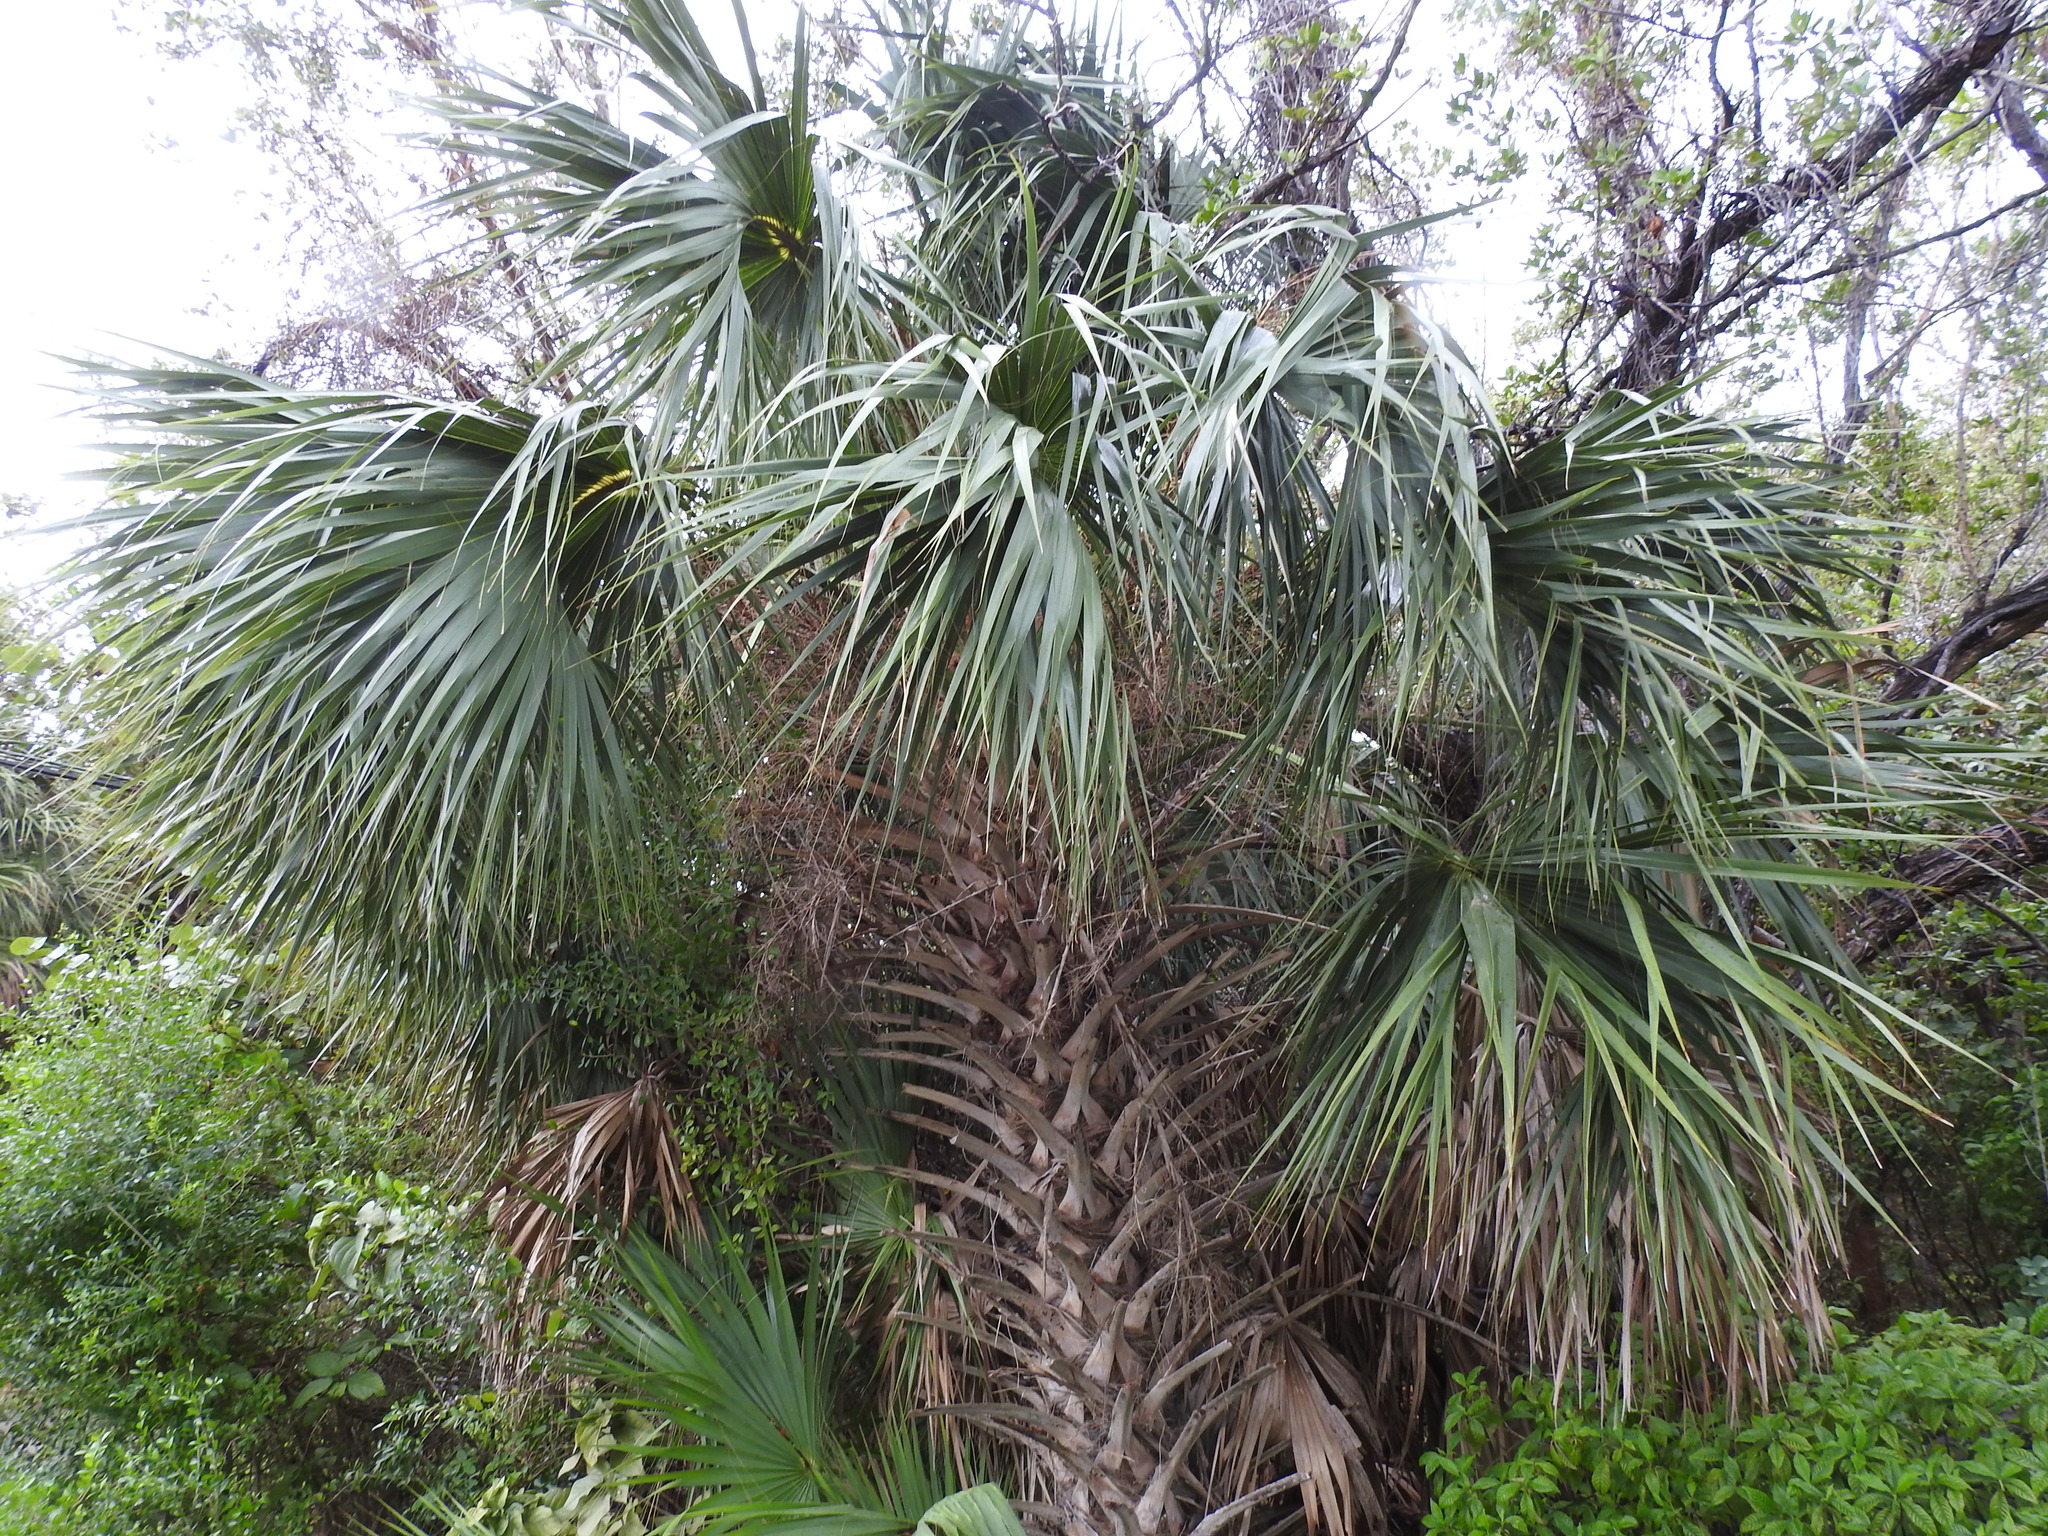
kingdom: Plantae
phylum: Tracheophyta
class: Liliopsida
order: Arecales
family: Arecaceae
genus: Sabal
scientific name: Sabal palmetto
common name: Blue palmetto
